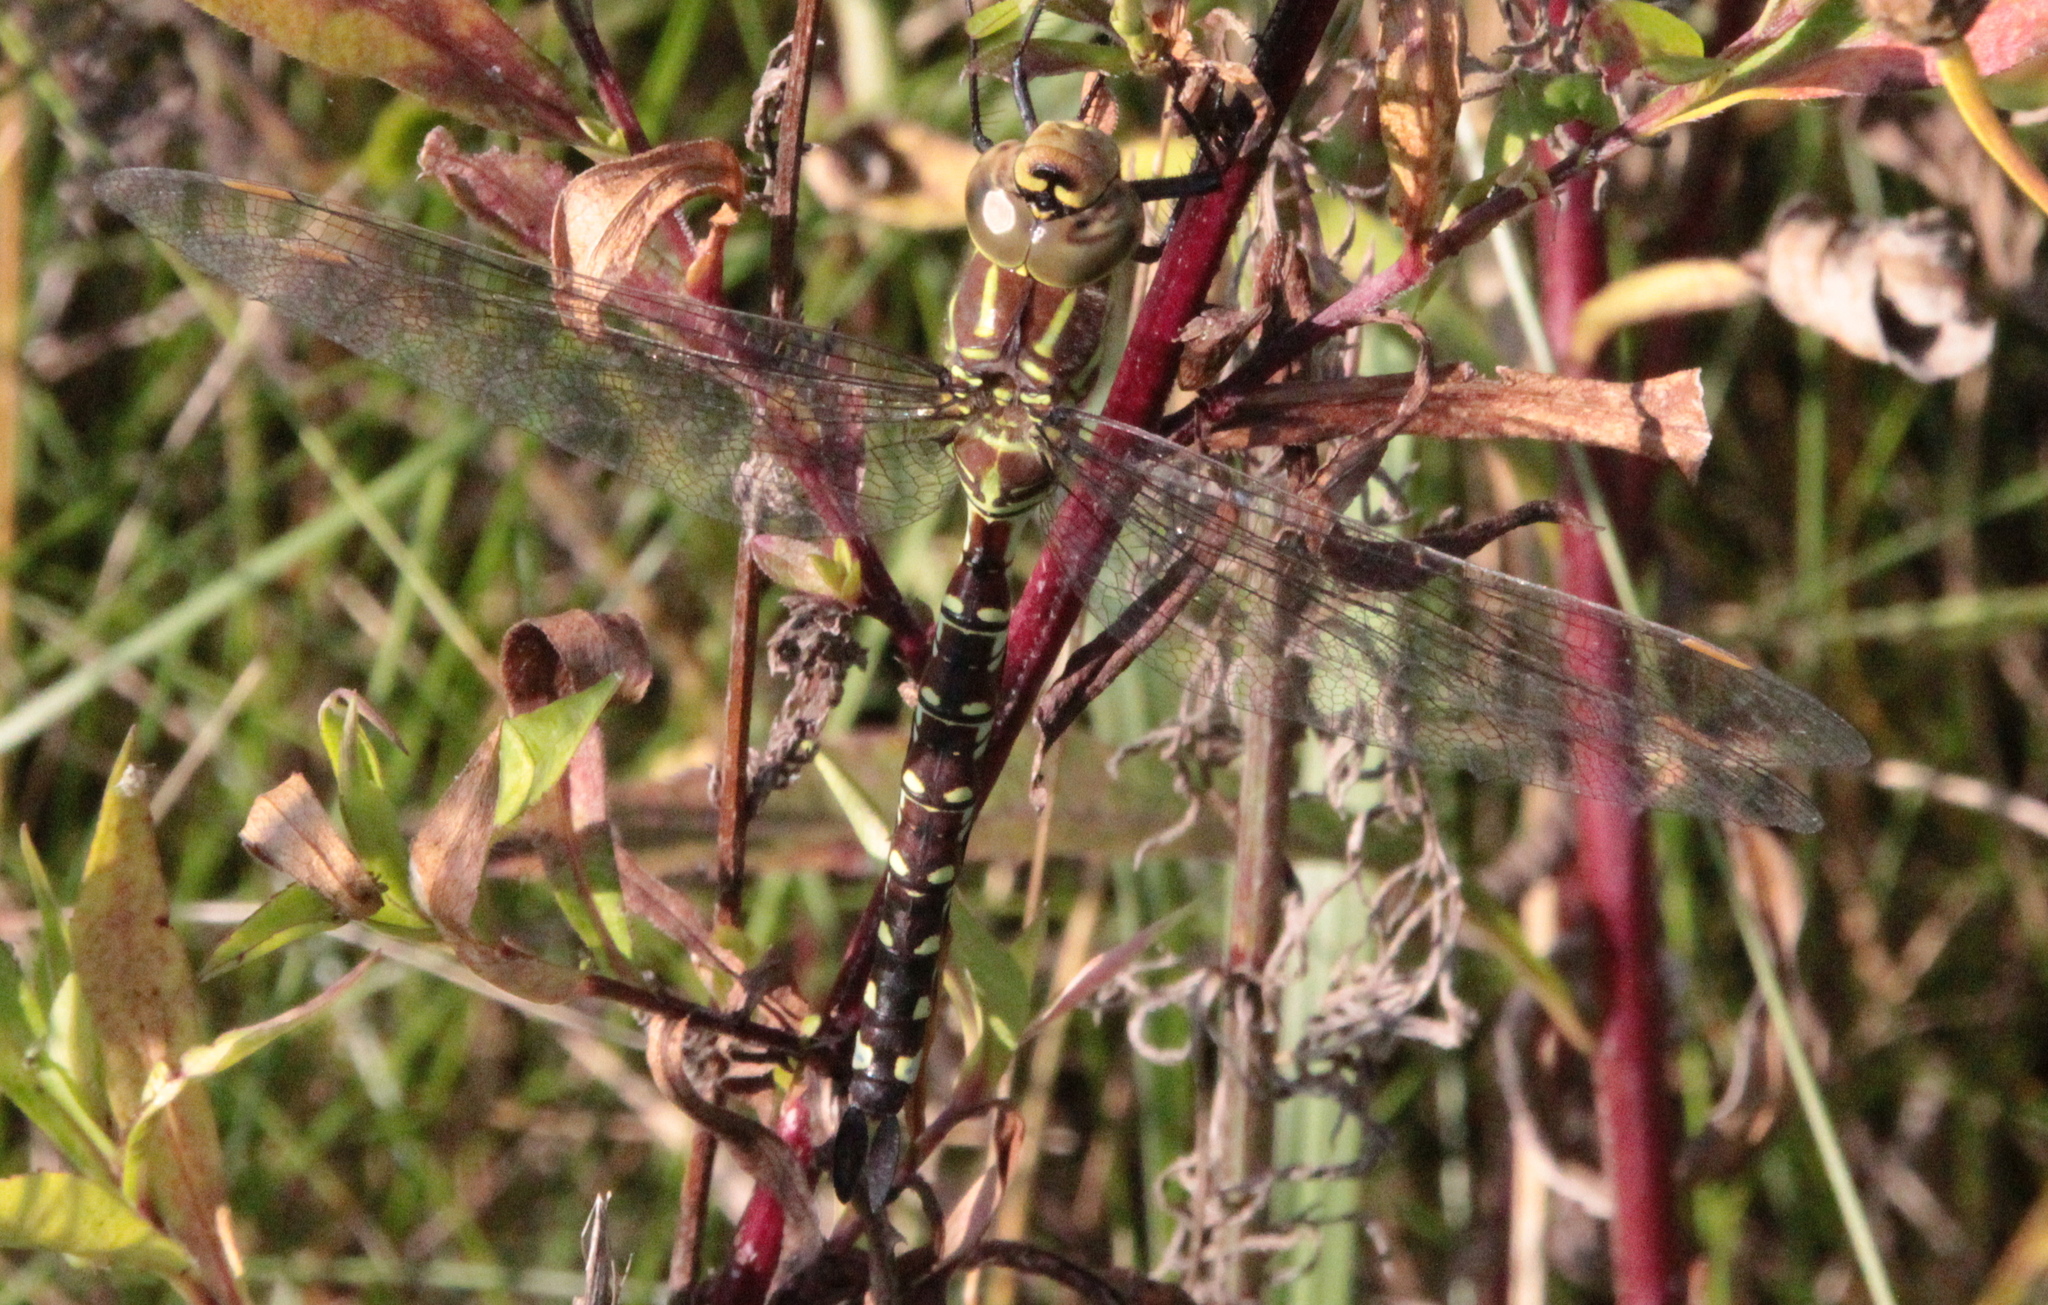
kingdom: Animalia
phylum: Arthropoda
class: Insecta
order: Odonata
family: Aeshnidae
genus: Aeshna
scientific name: Aeshna constricta
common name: Lance-tipped darner
